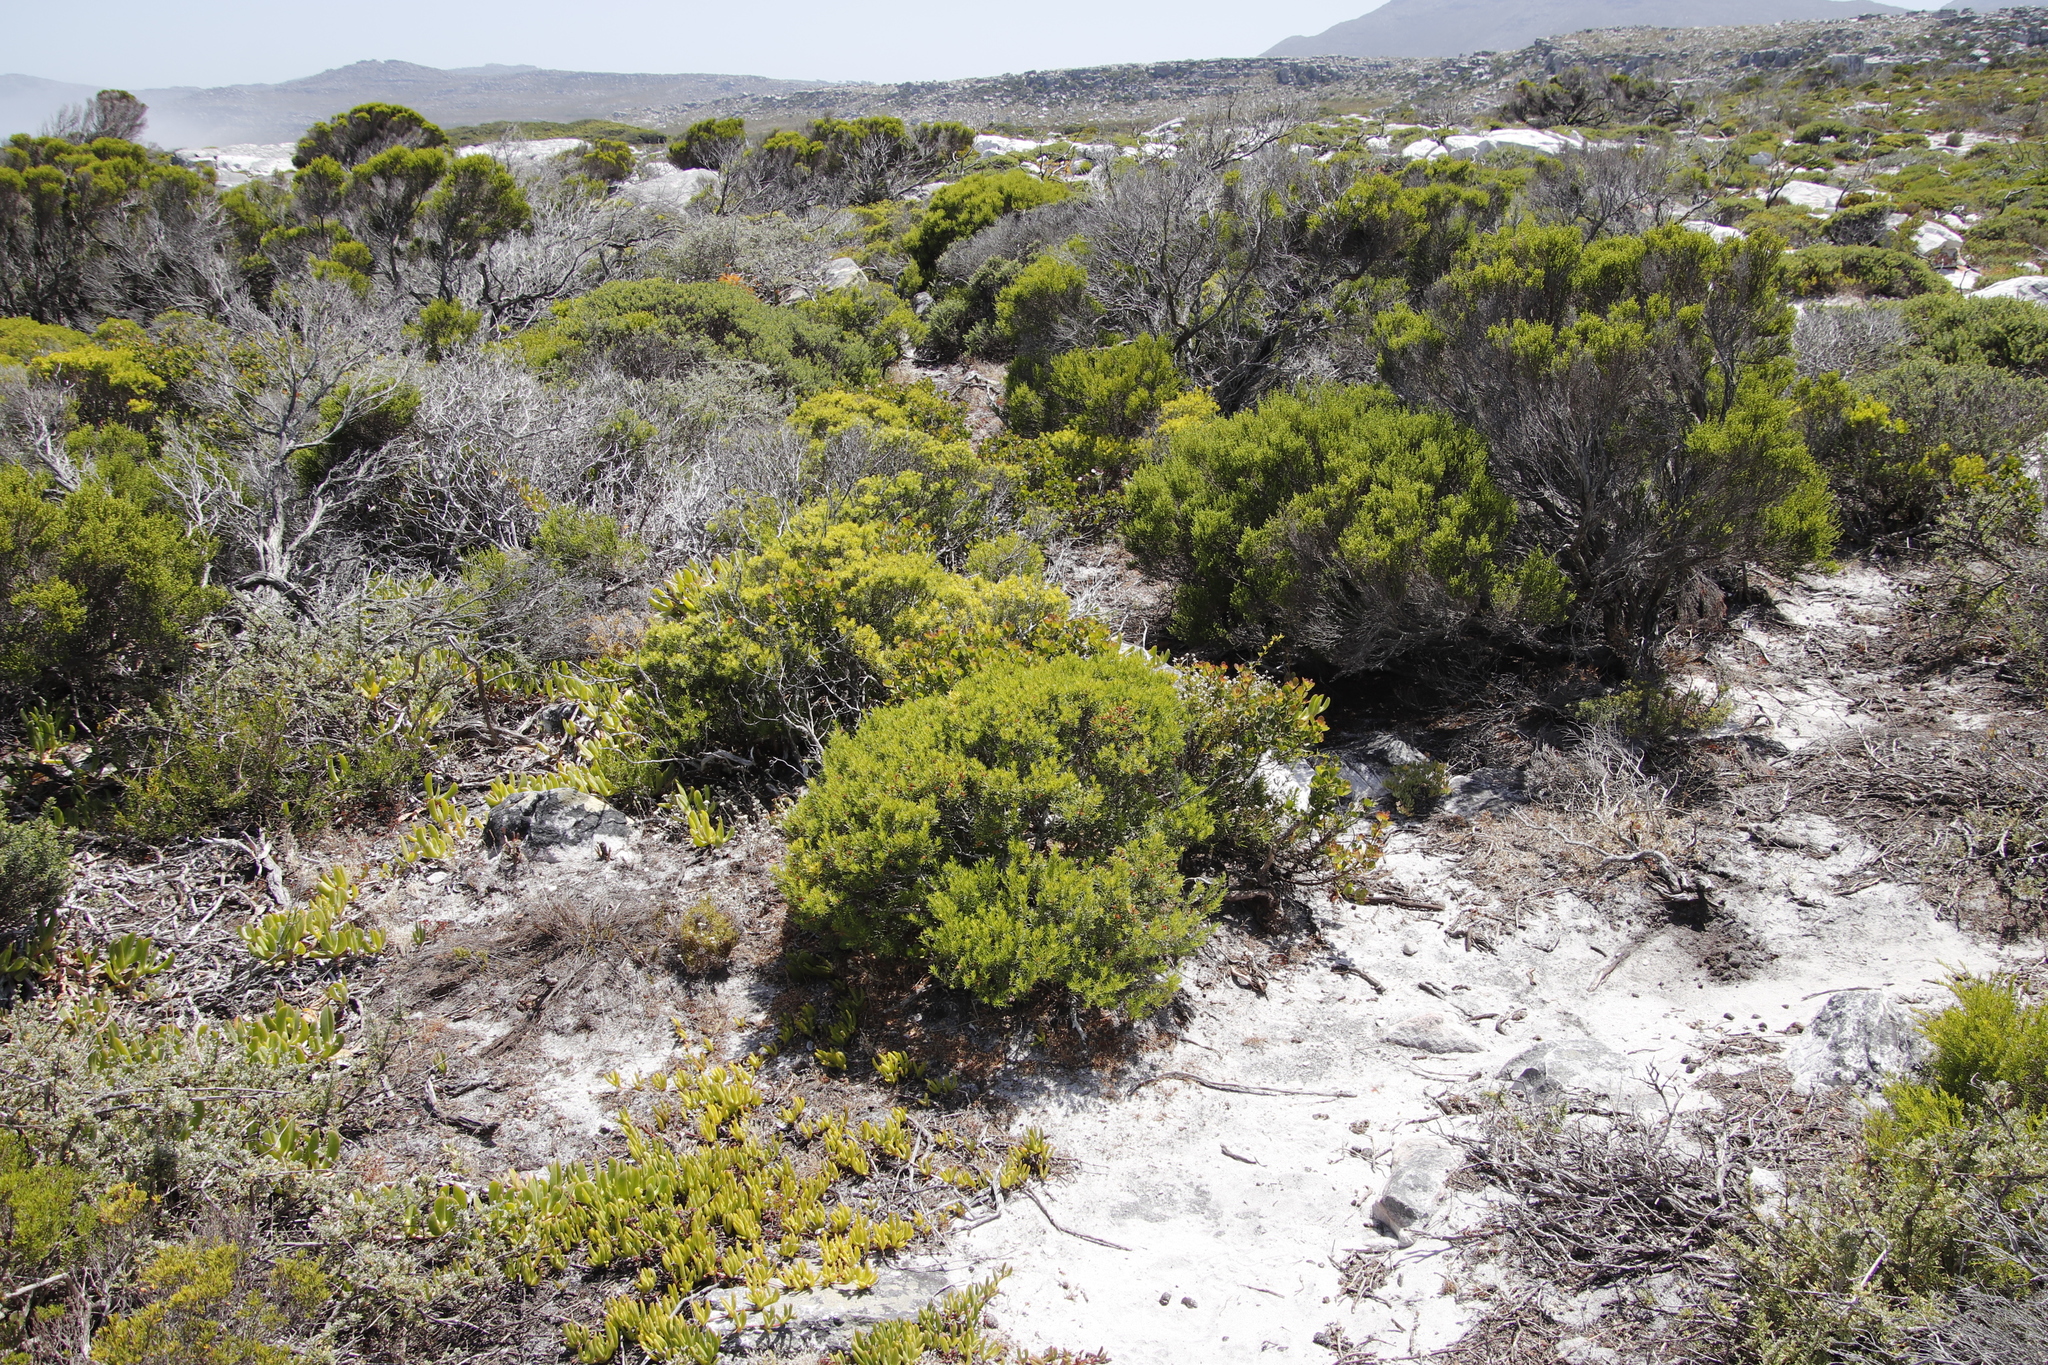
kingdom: Plantae
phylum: Tracheophyta
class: Magnoliopsida
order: Sapindales
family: Rutaceae
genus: Coleonema
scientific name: Coleonema album
